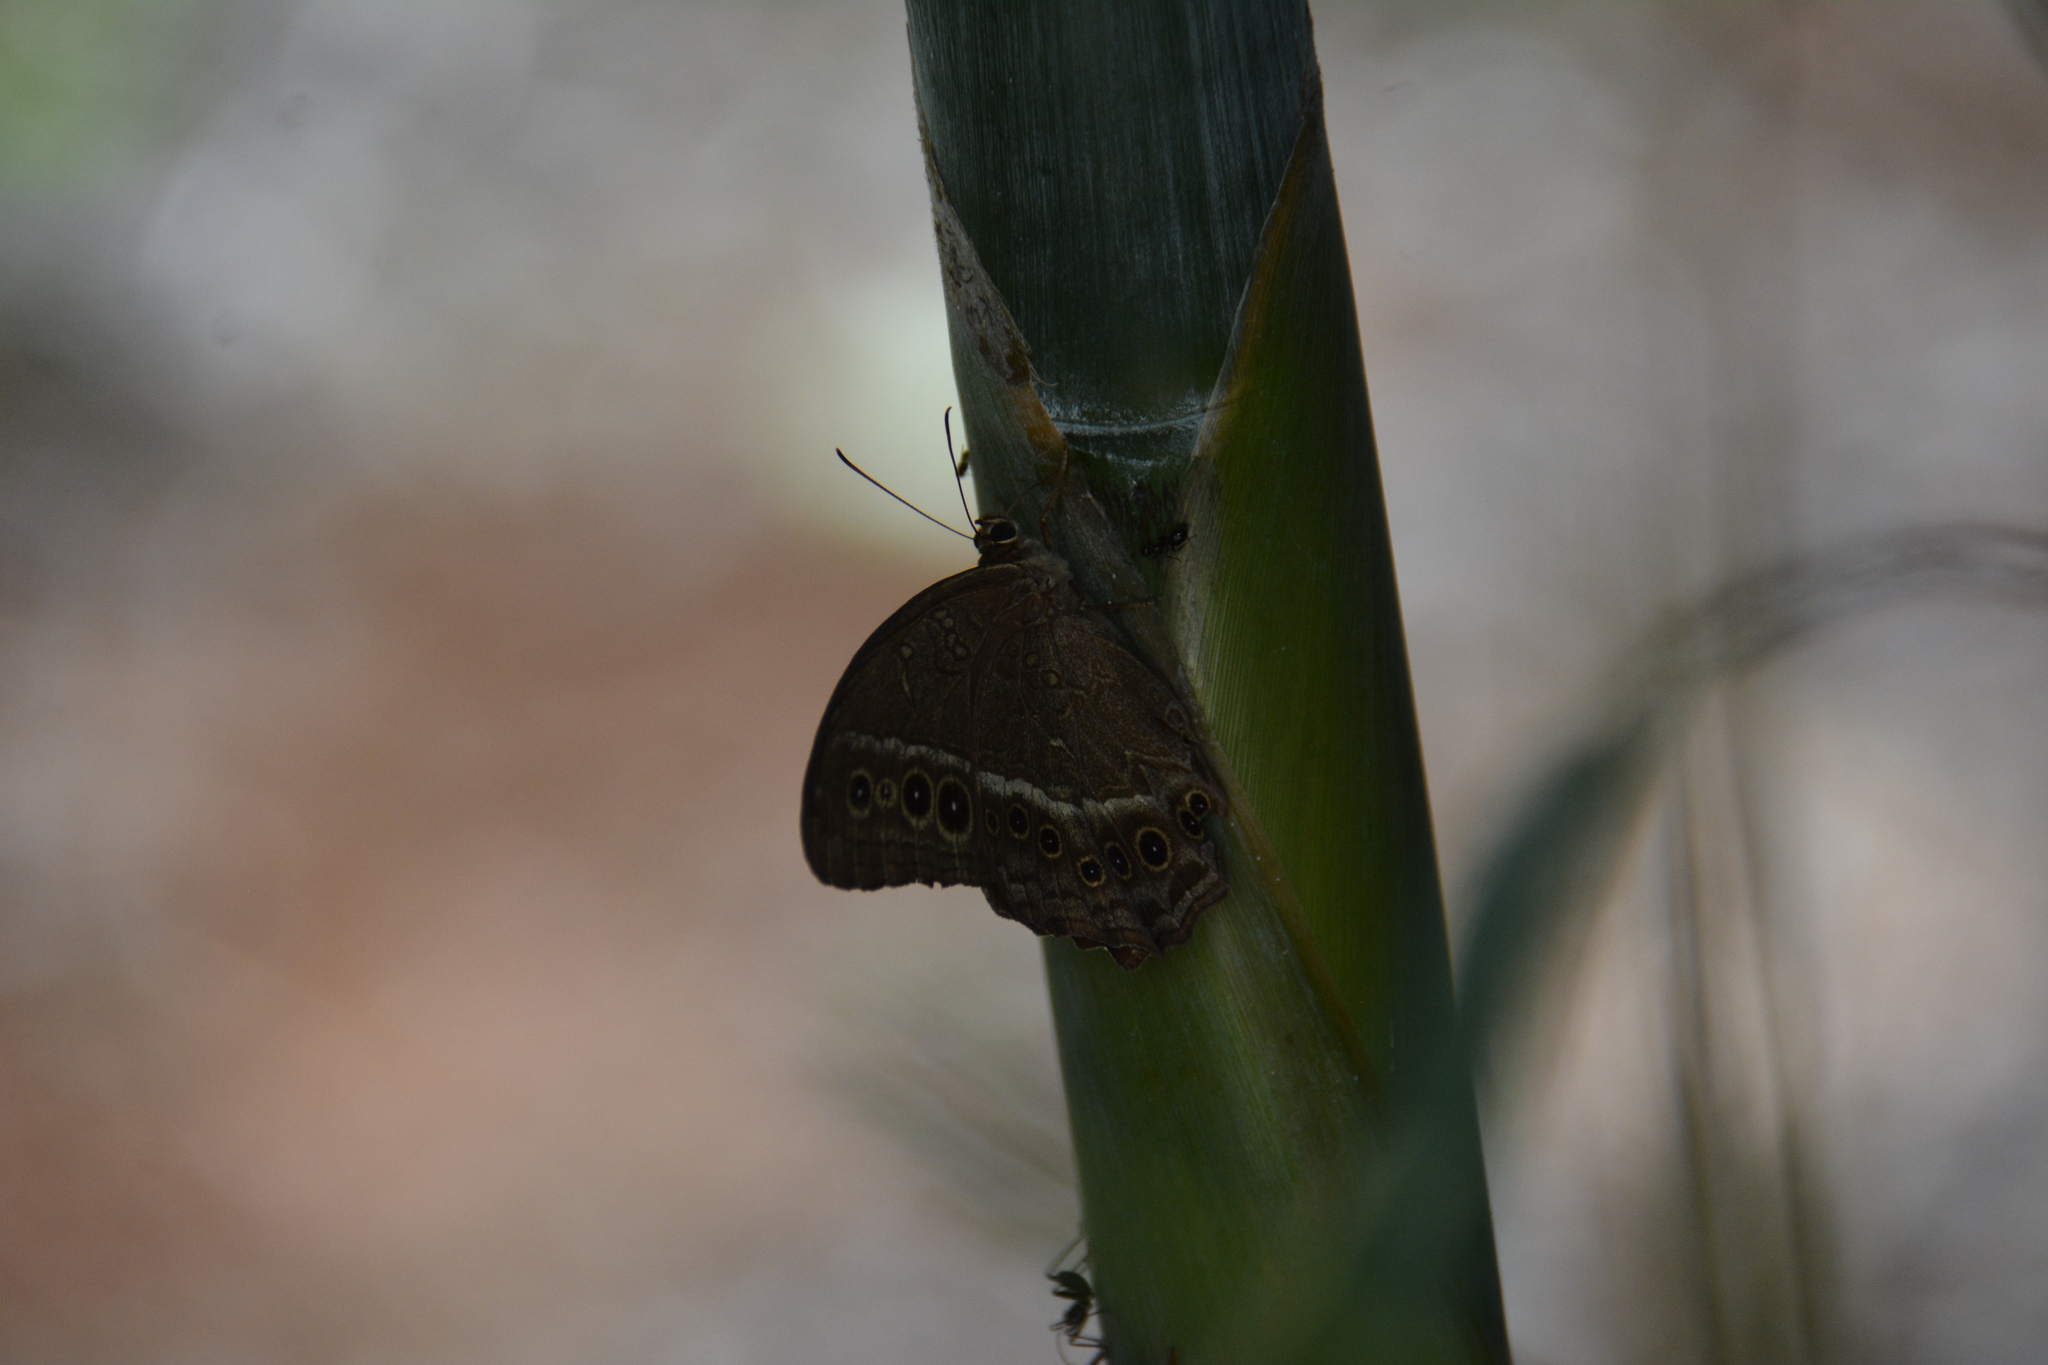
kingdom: Animalia
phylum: Arthropoda
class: Insecta
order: Lepidoptera
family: Nymphalidae
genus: Neope
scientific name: Neope muirheadii
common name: Black-spotted labyrinth
